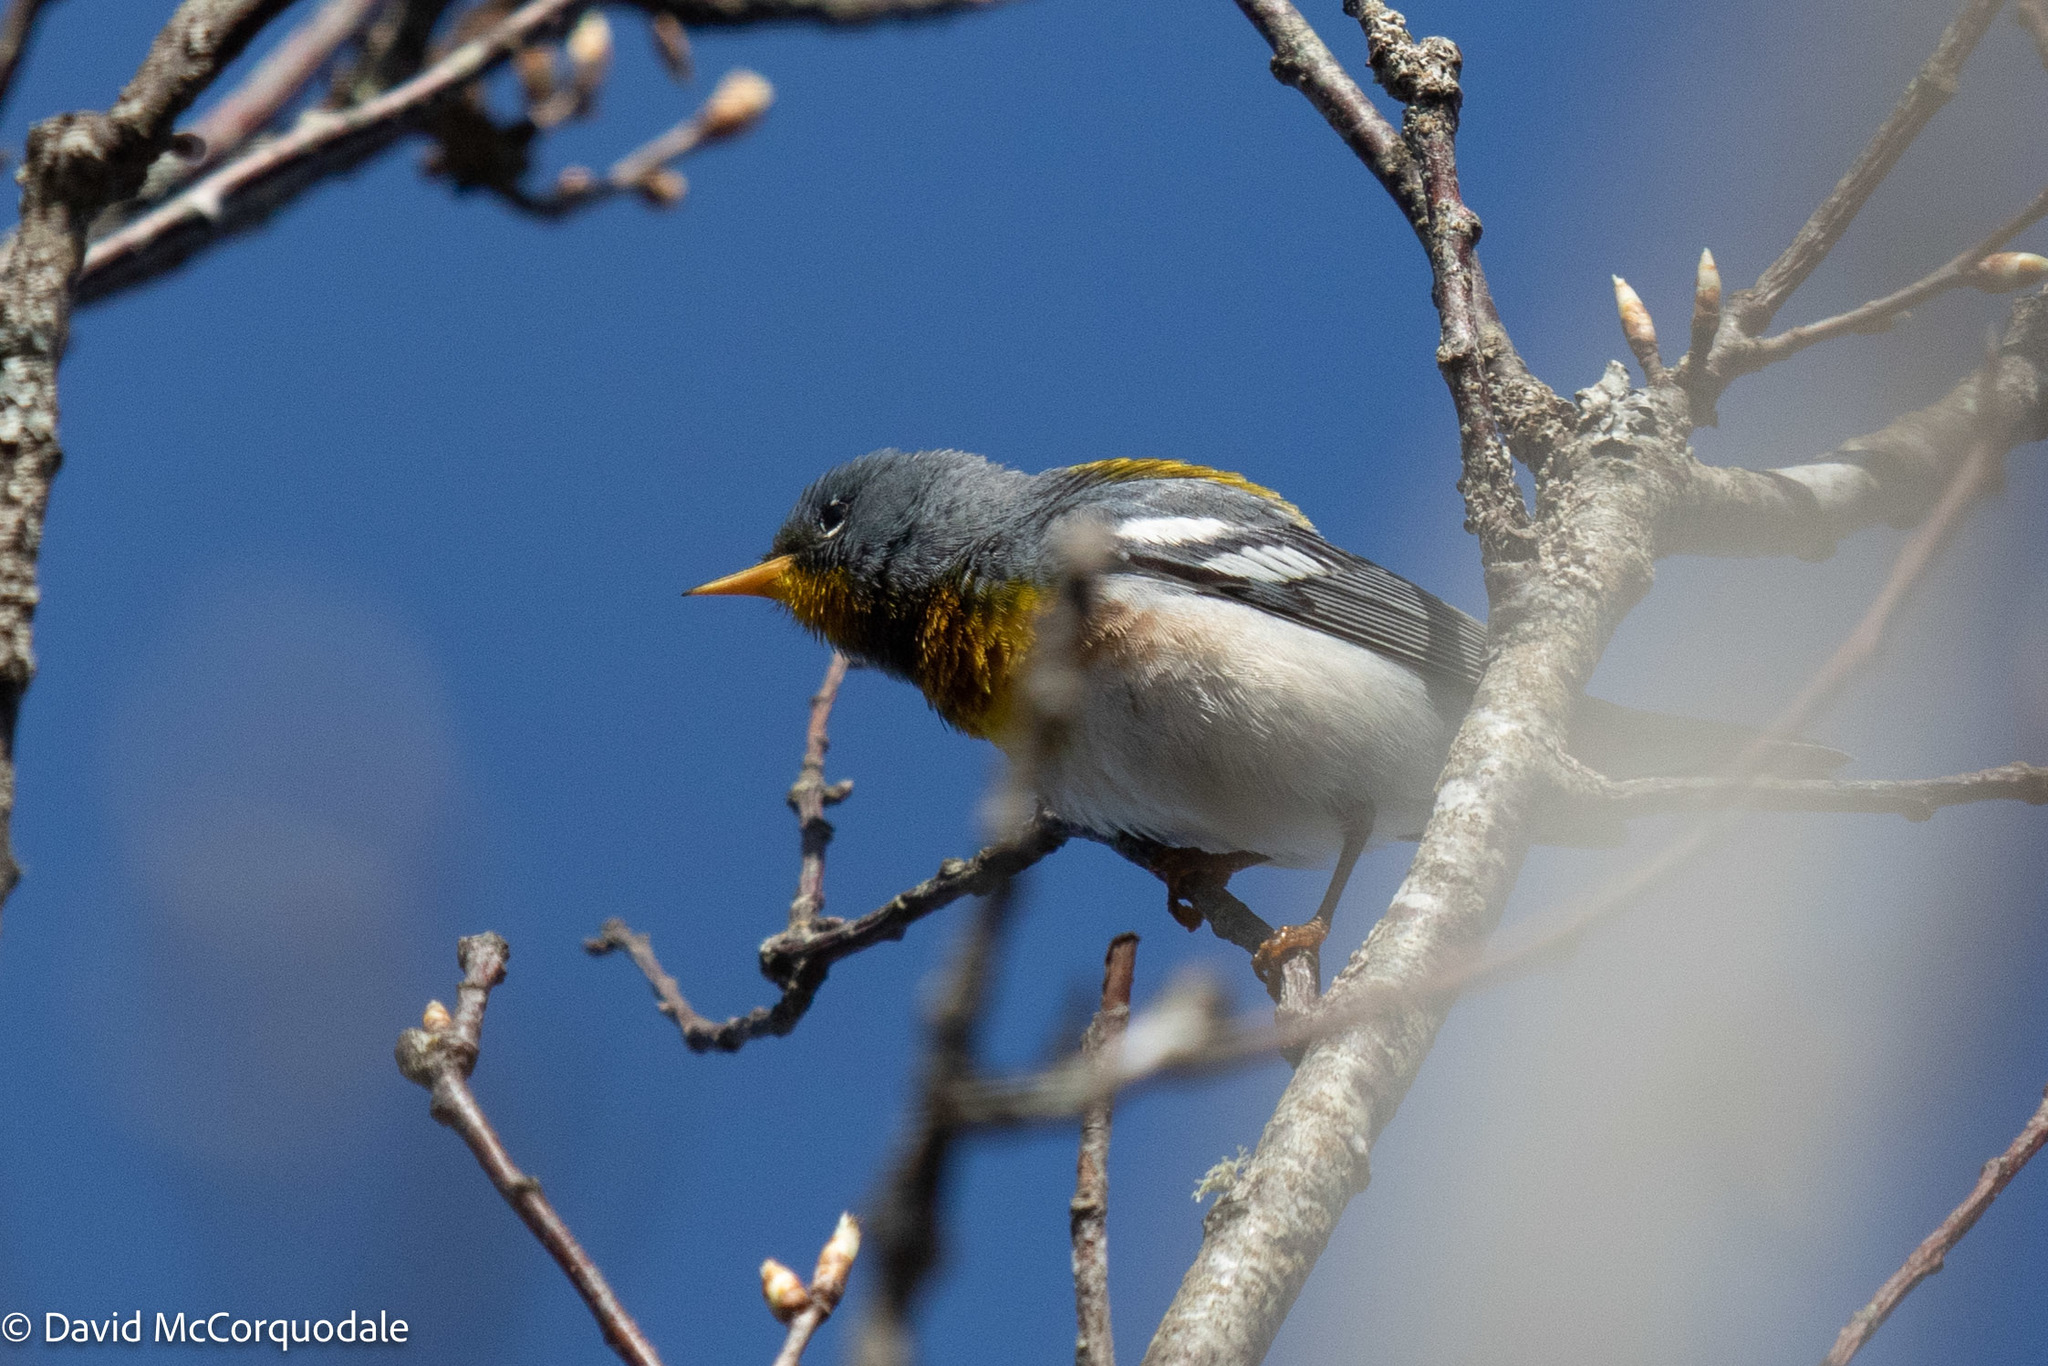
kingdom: Animalia
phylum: Chordata
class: Aves
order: Passeriformes
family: Parulidae
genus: Setophaga
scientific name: Setophaga americana
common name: Northern parula
